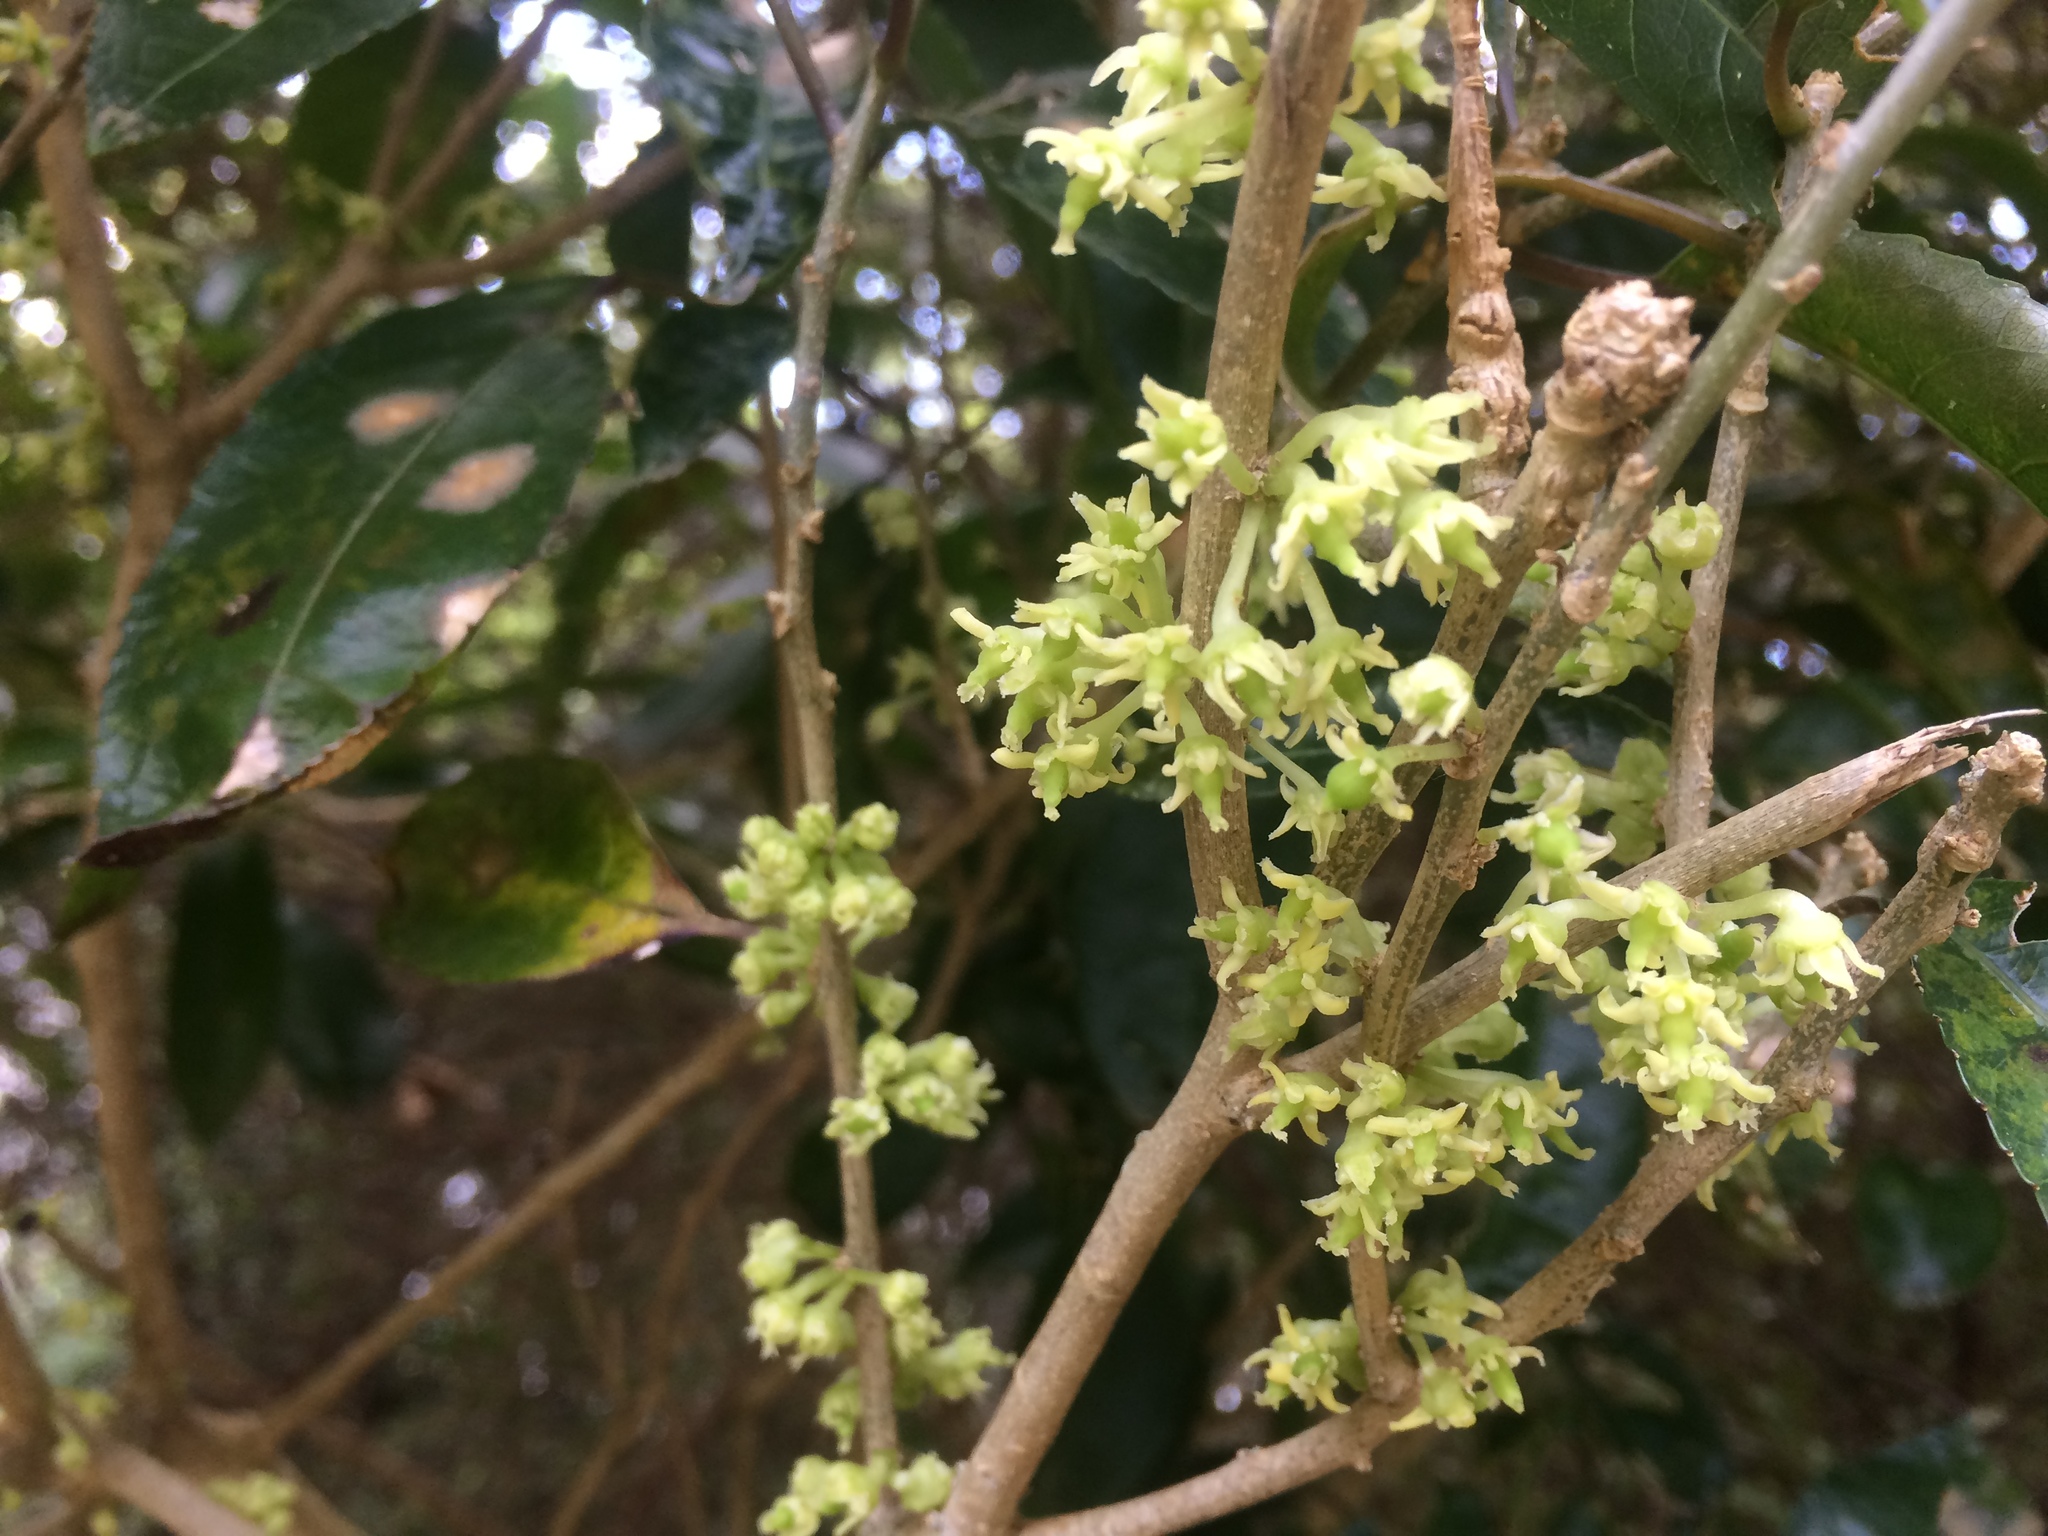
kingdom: Plantae
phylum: Tracheophyta
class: Magnoliopsida
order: Malpighiales
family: Violaceae
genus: Melicytus
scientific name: Melicytus ramiflorus
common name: Mahoe
